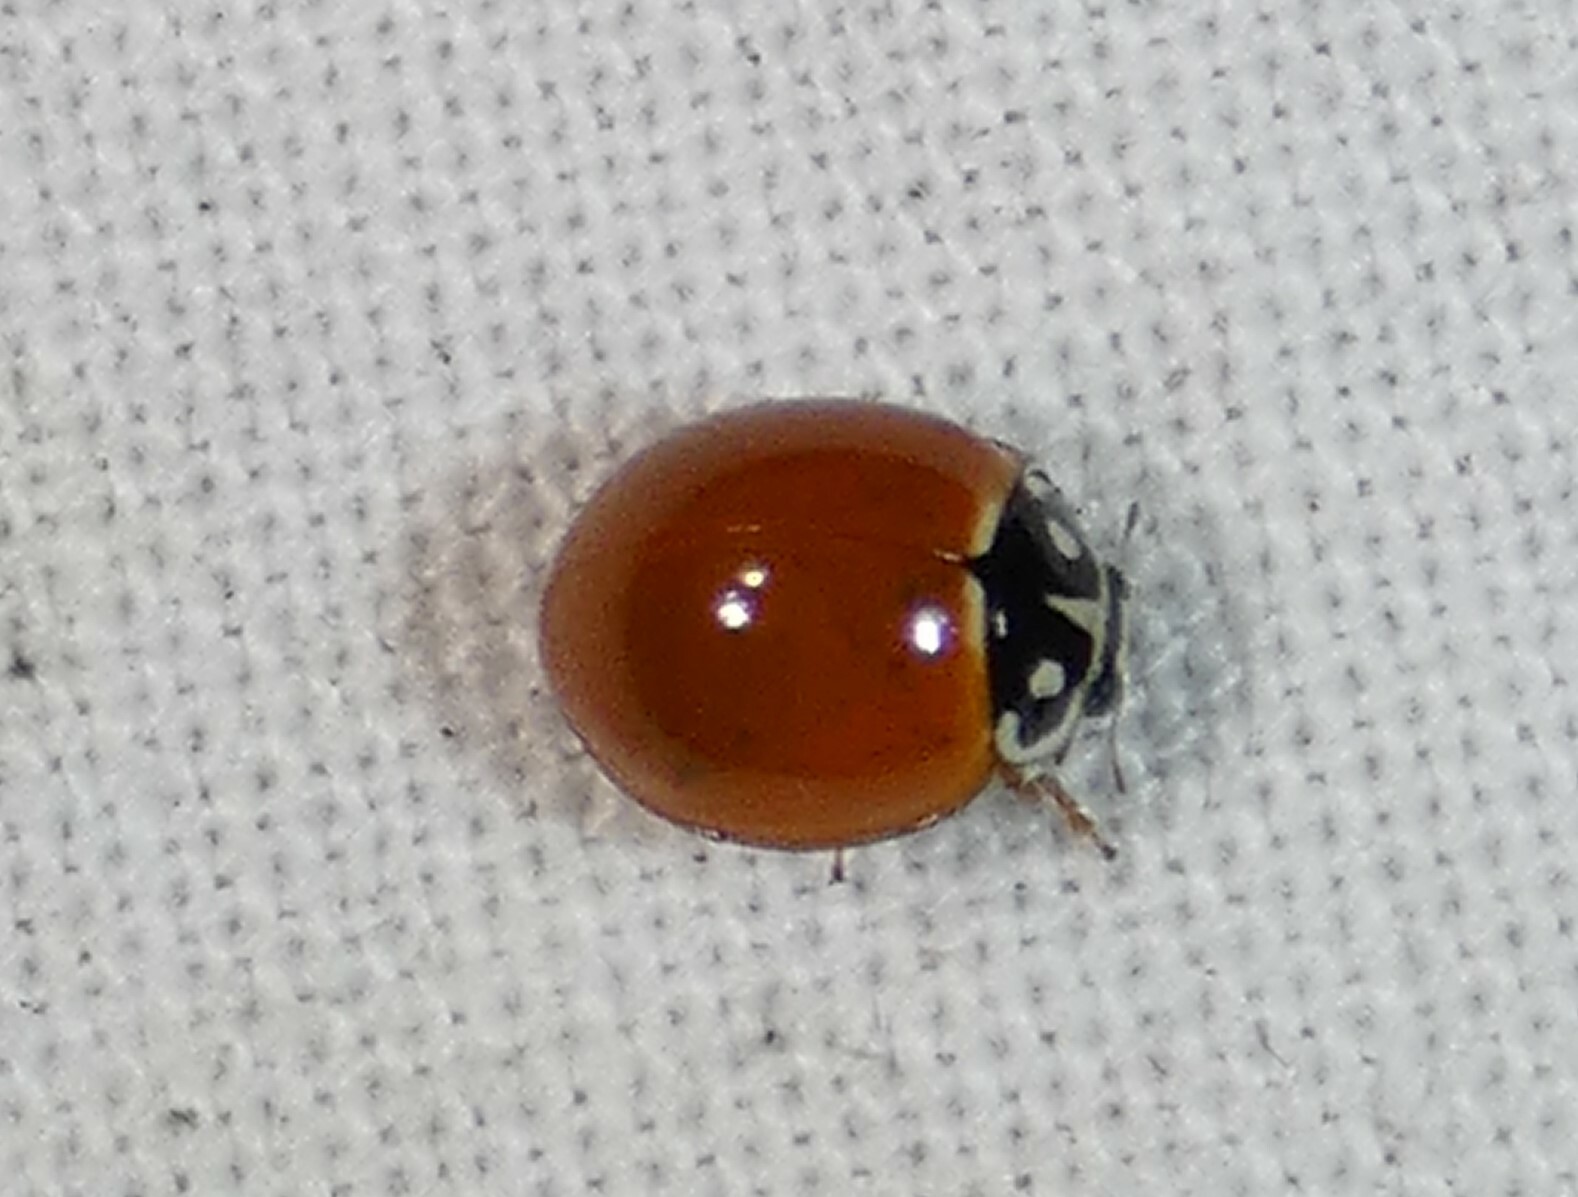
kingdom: Animalia
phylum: Arthropoda
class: Insecta
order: Coleoptera
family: Coccinellidae
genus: Cycloneda
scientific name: Cycloneda sanguinea
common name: Ladybird beetle
